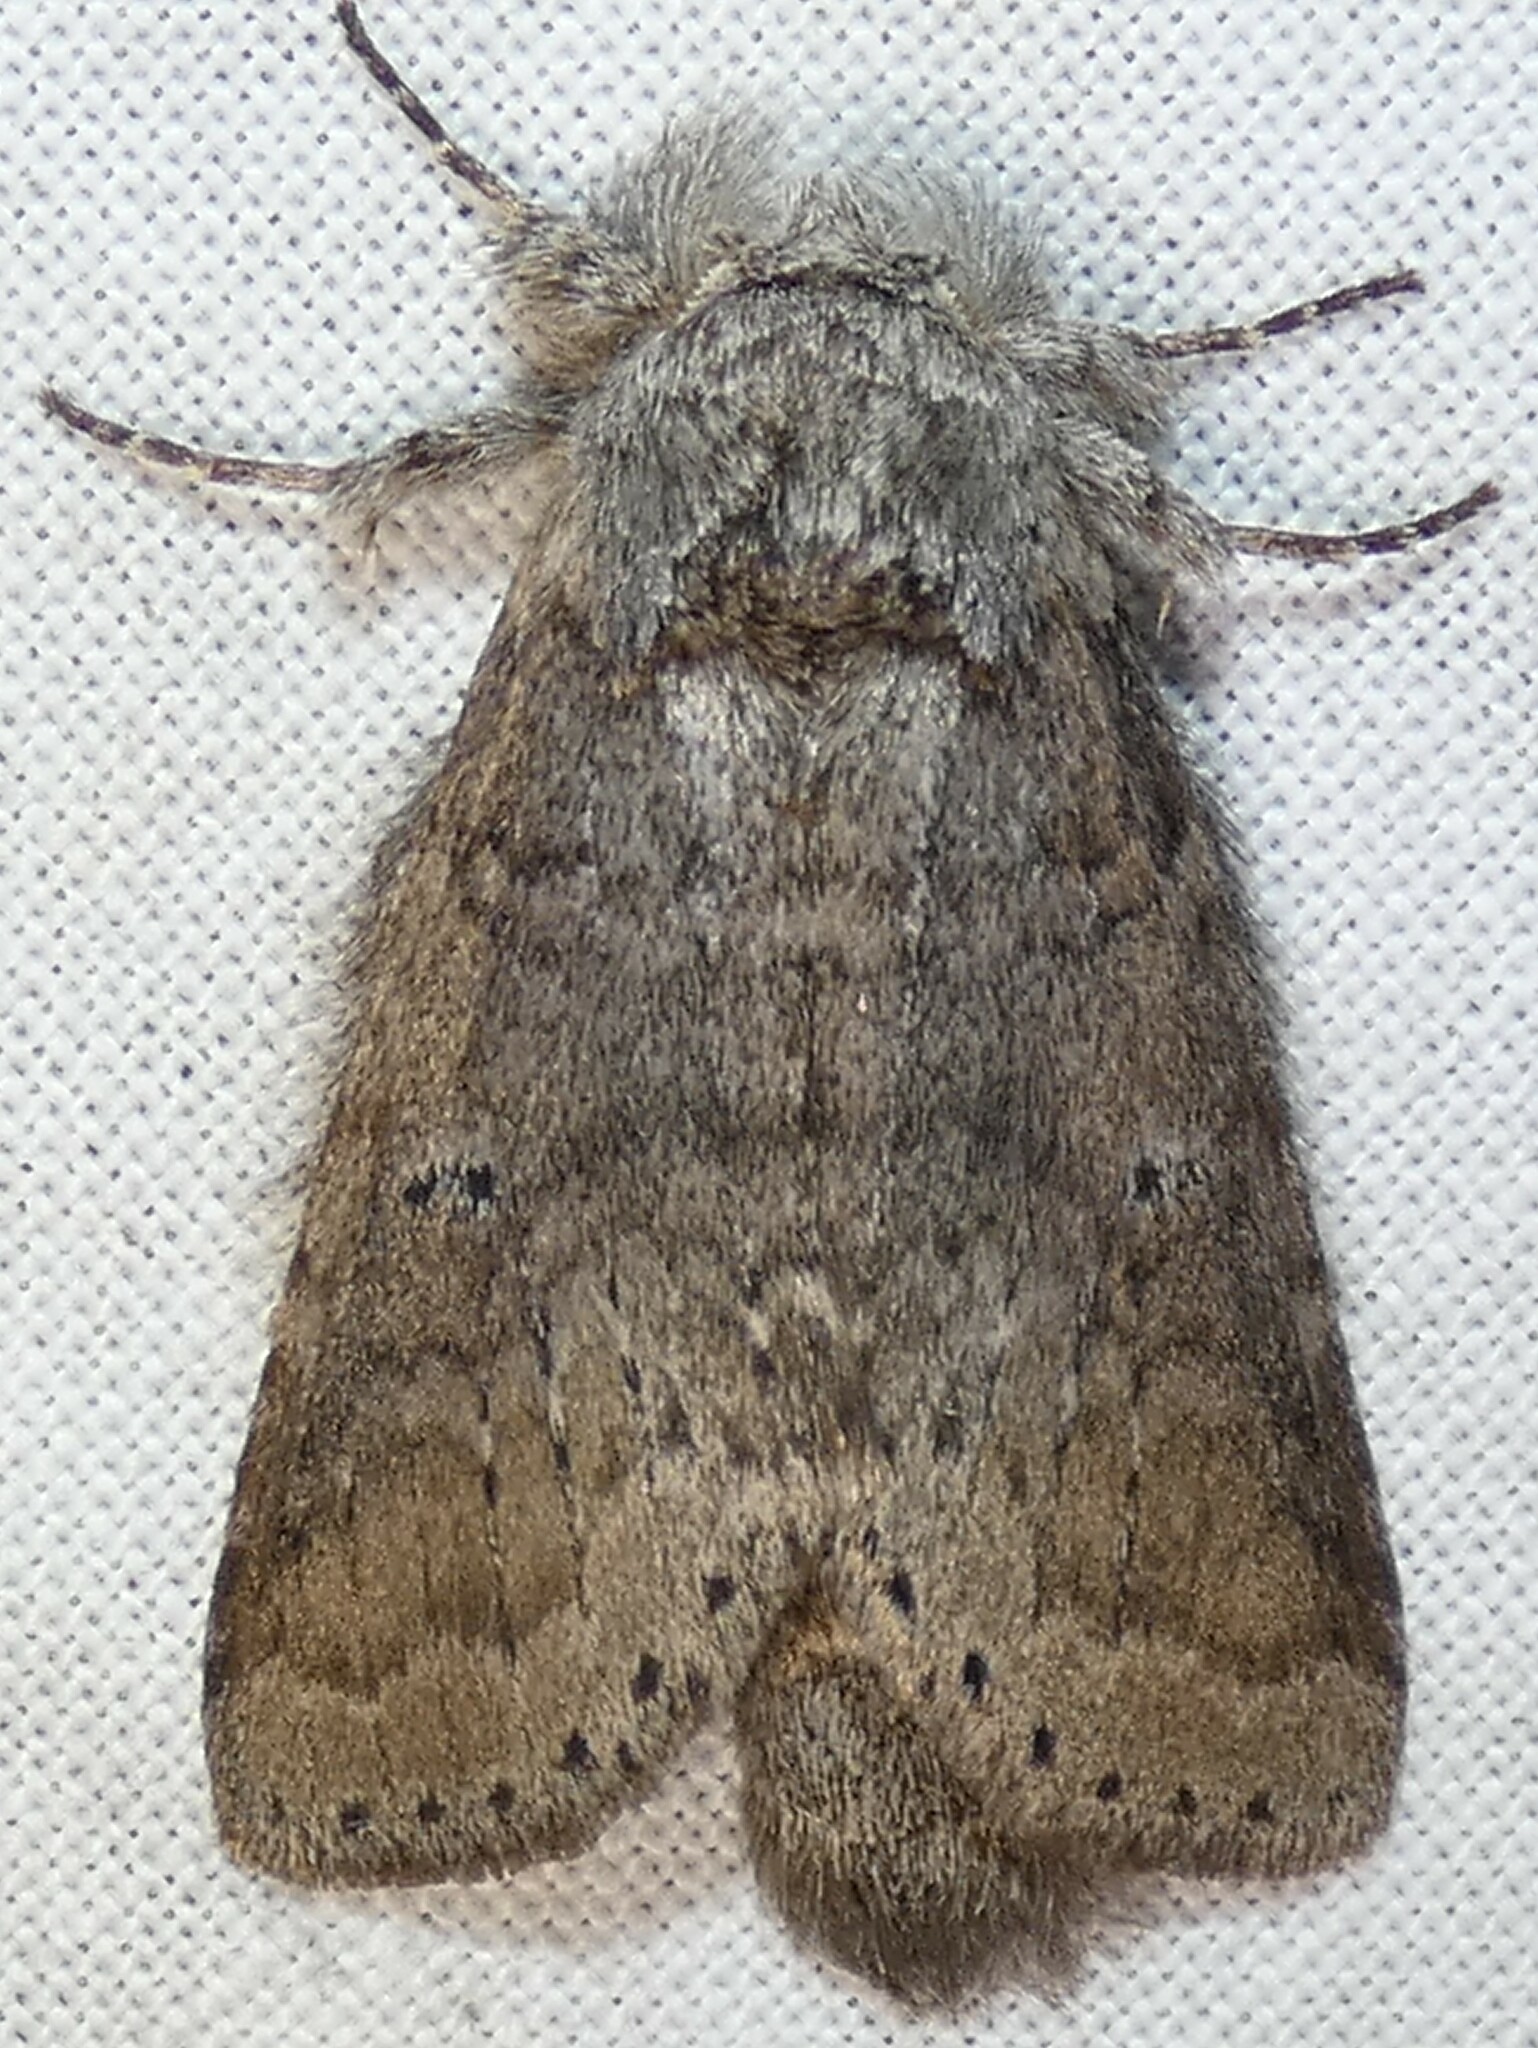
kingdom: Animalia
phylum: Arthropoda
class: Insecta
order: Lepidoptera
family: Notodontidae
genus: Lochmaeus
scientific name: Lochmaeus manteo
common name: Variable oakleaf caterpillar moth
